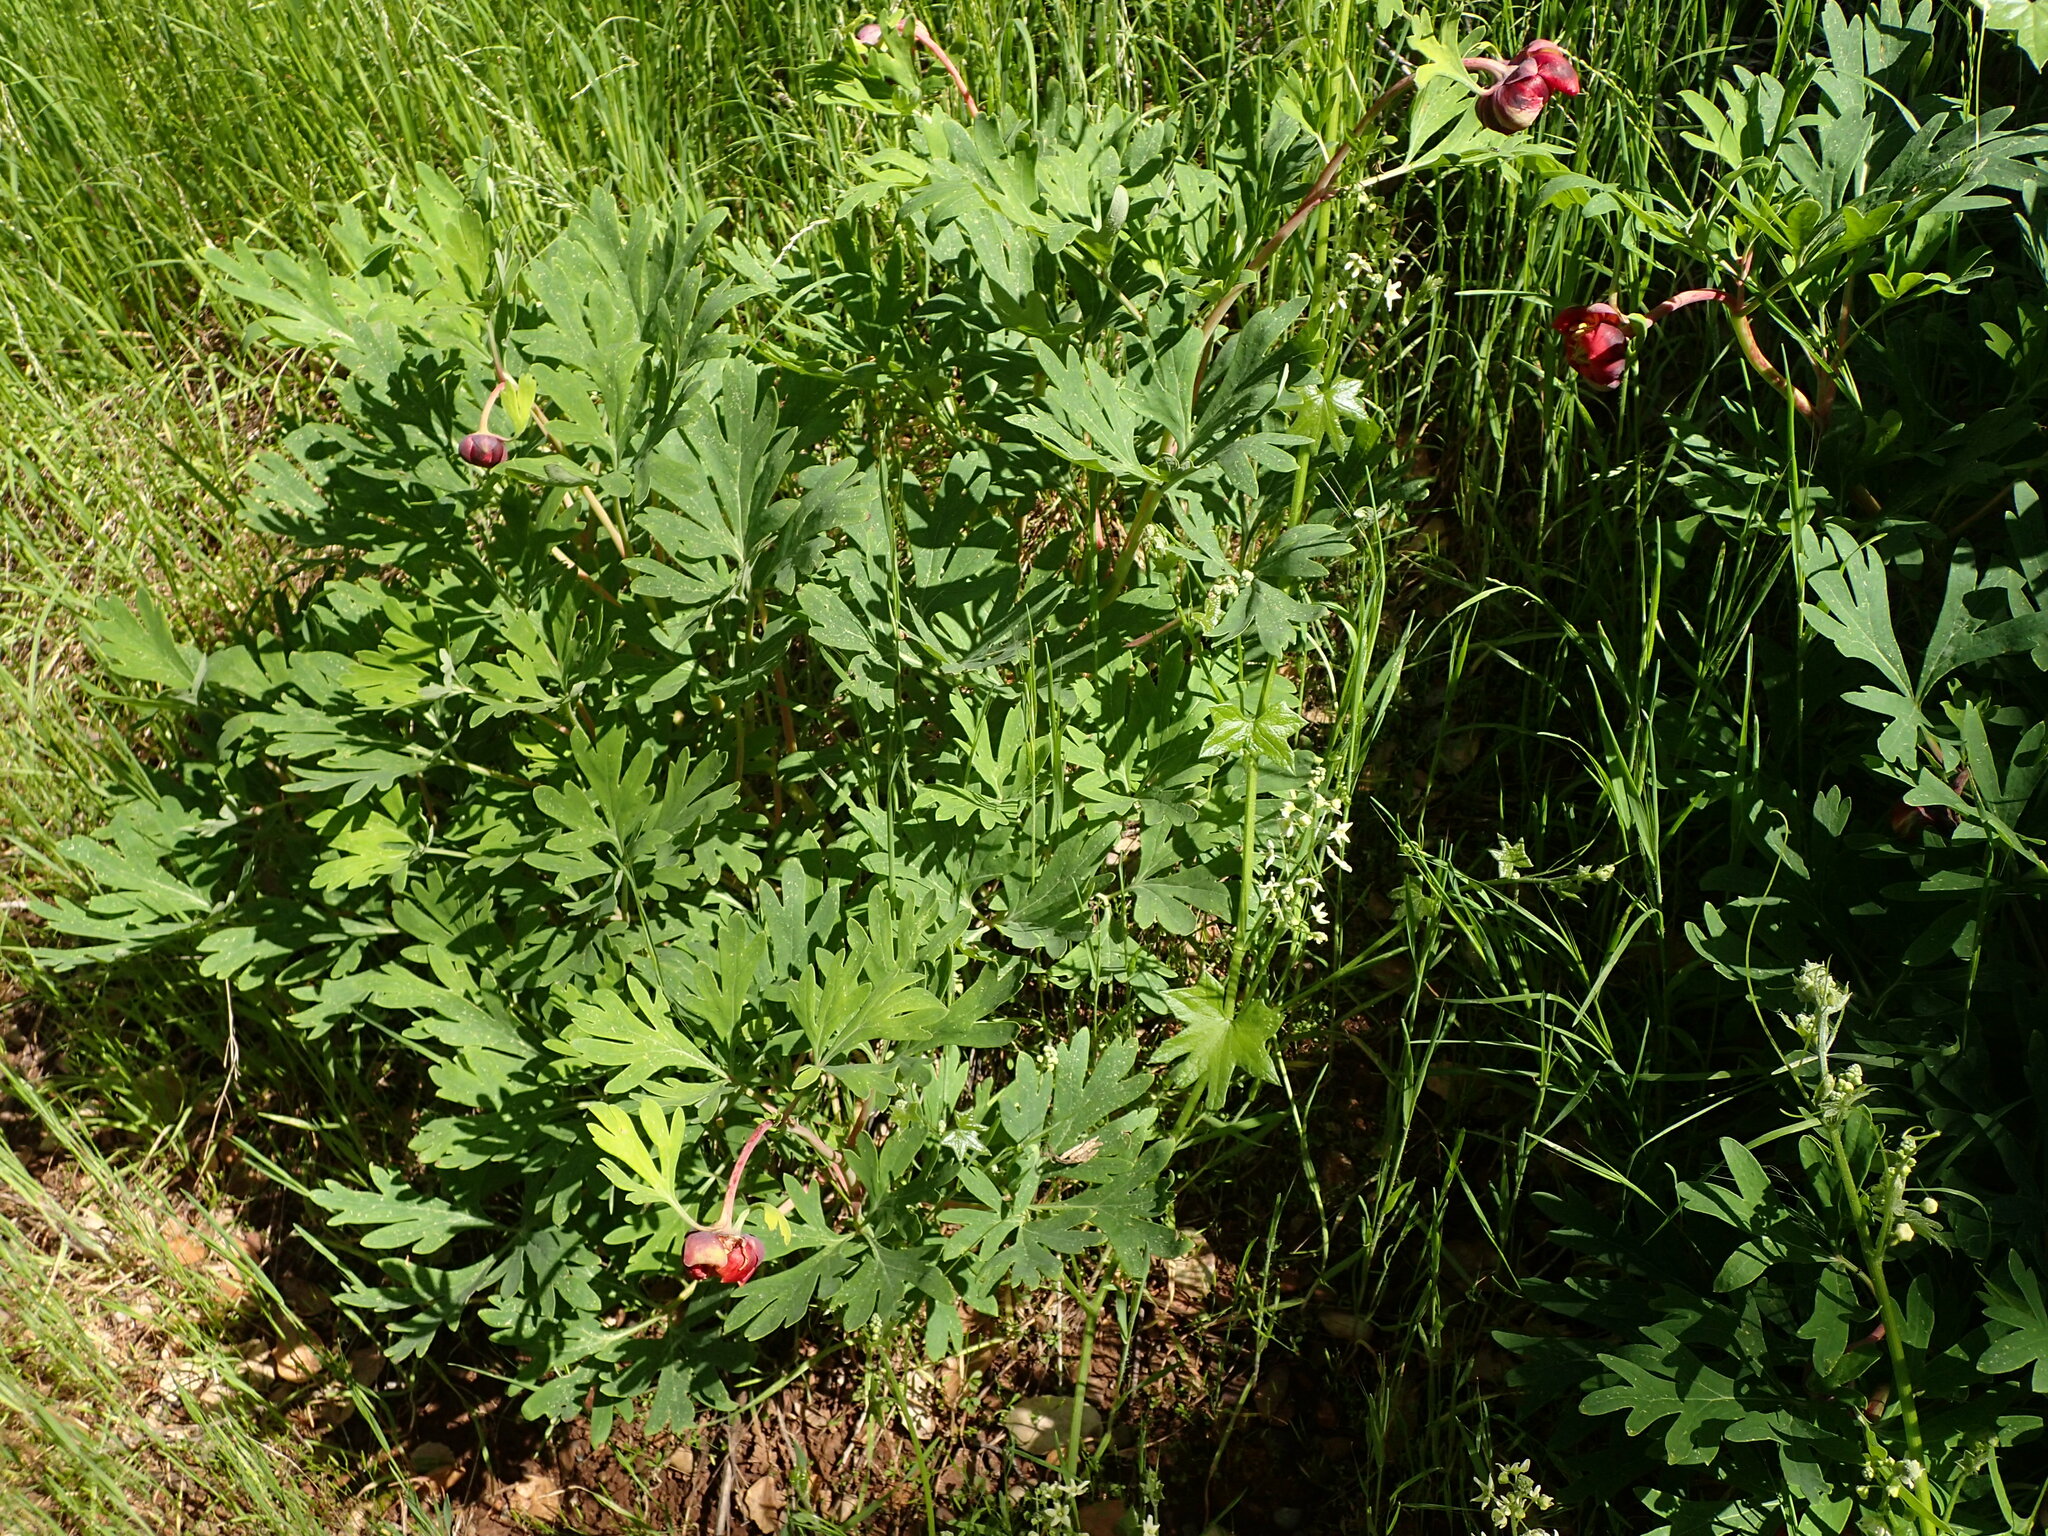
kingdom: Plantae
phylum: Tracheophyta
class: Magnoliopsida
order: Saxifragales
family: Paeoniaceae
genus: Paeonia
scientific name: Paeonia californica
